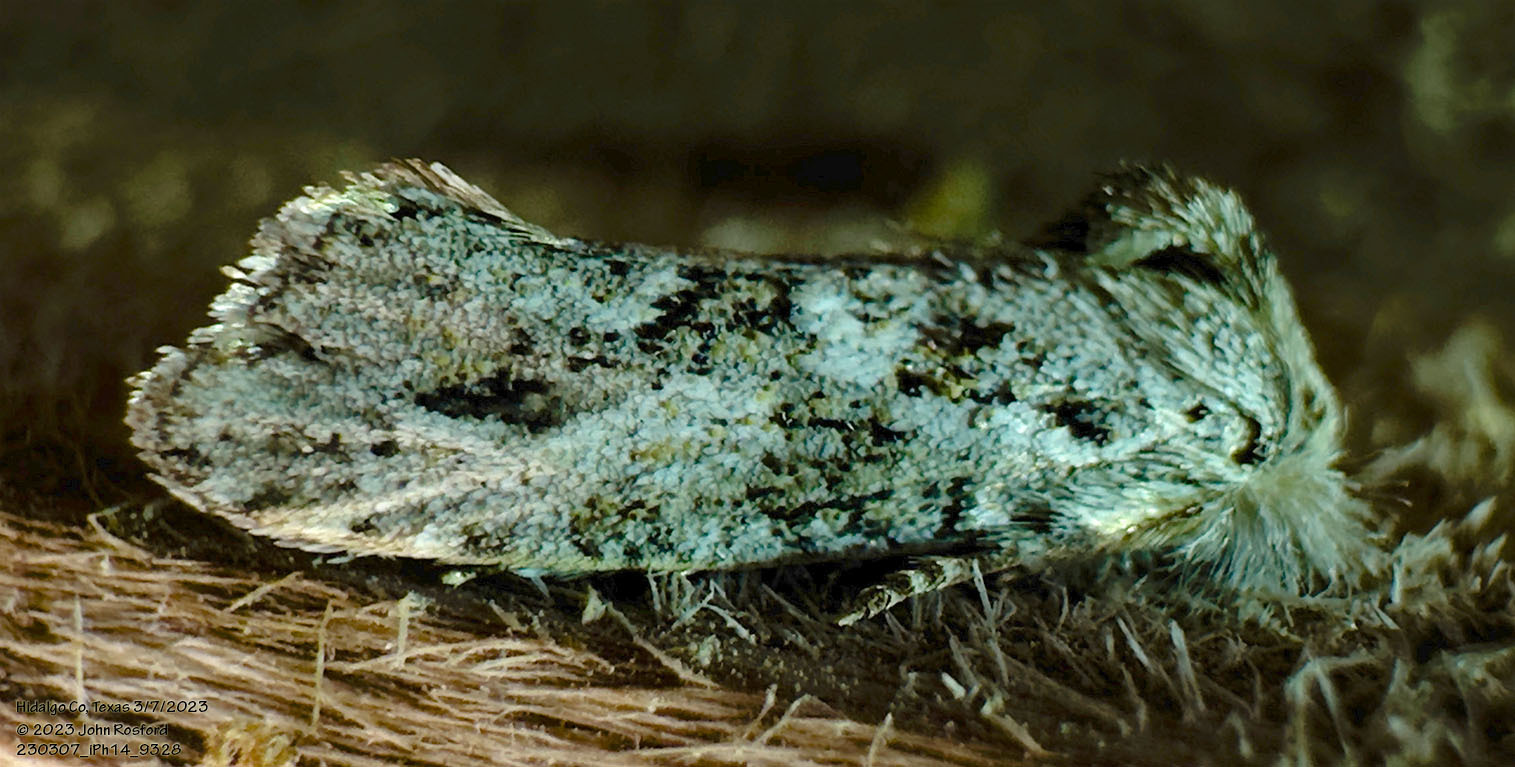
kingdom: Animalia
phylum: Arthropoda
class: Insecta
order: Lepidoptera
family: Tineidae
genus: Acrolophus
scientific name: Acrolophus griseus
